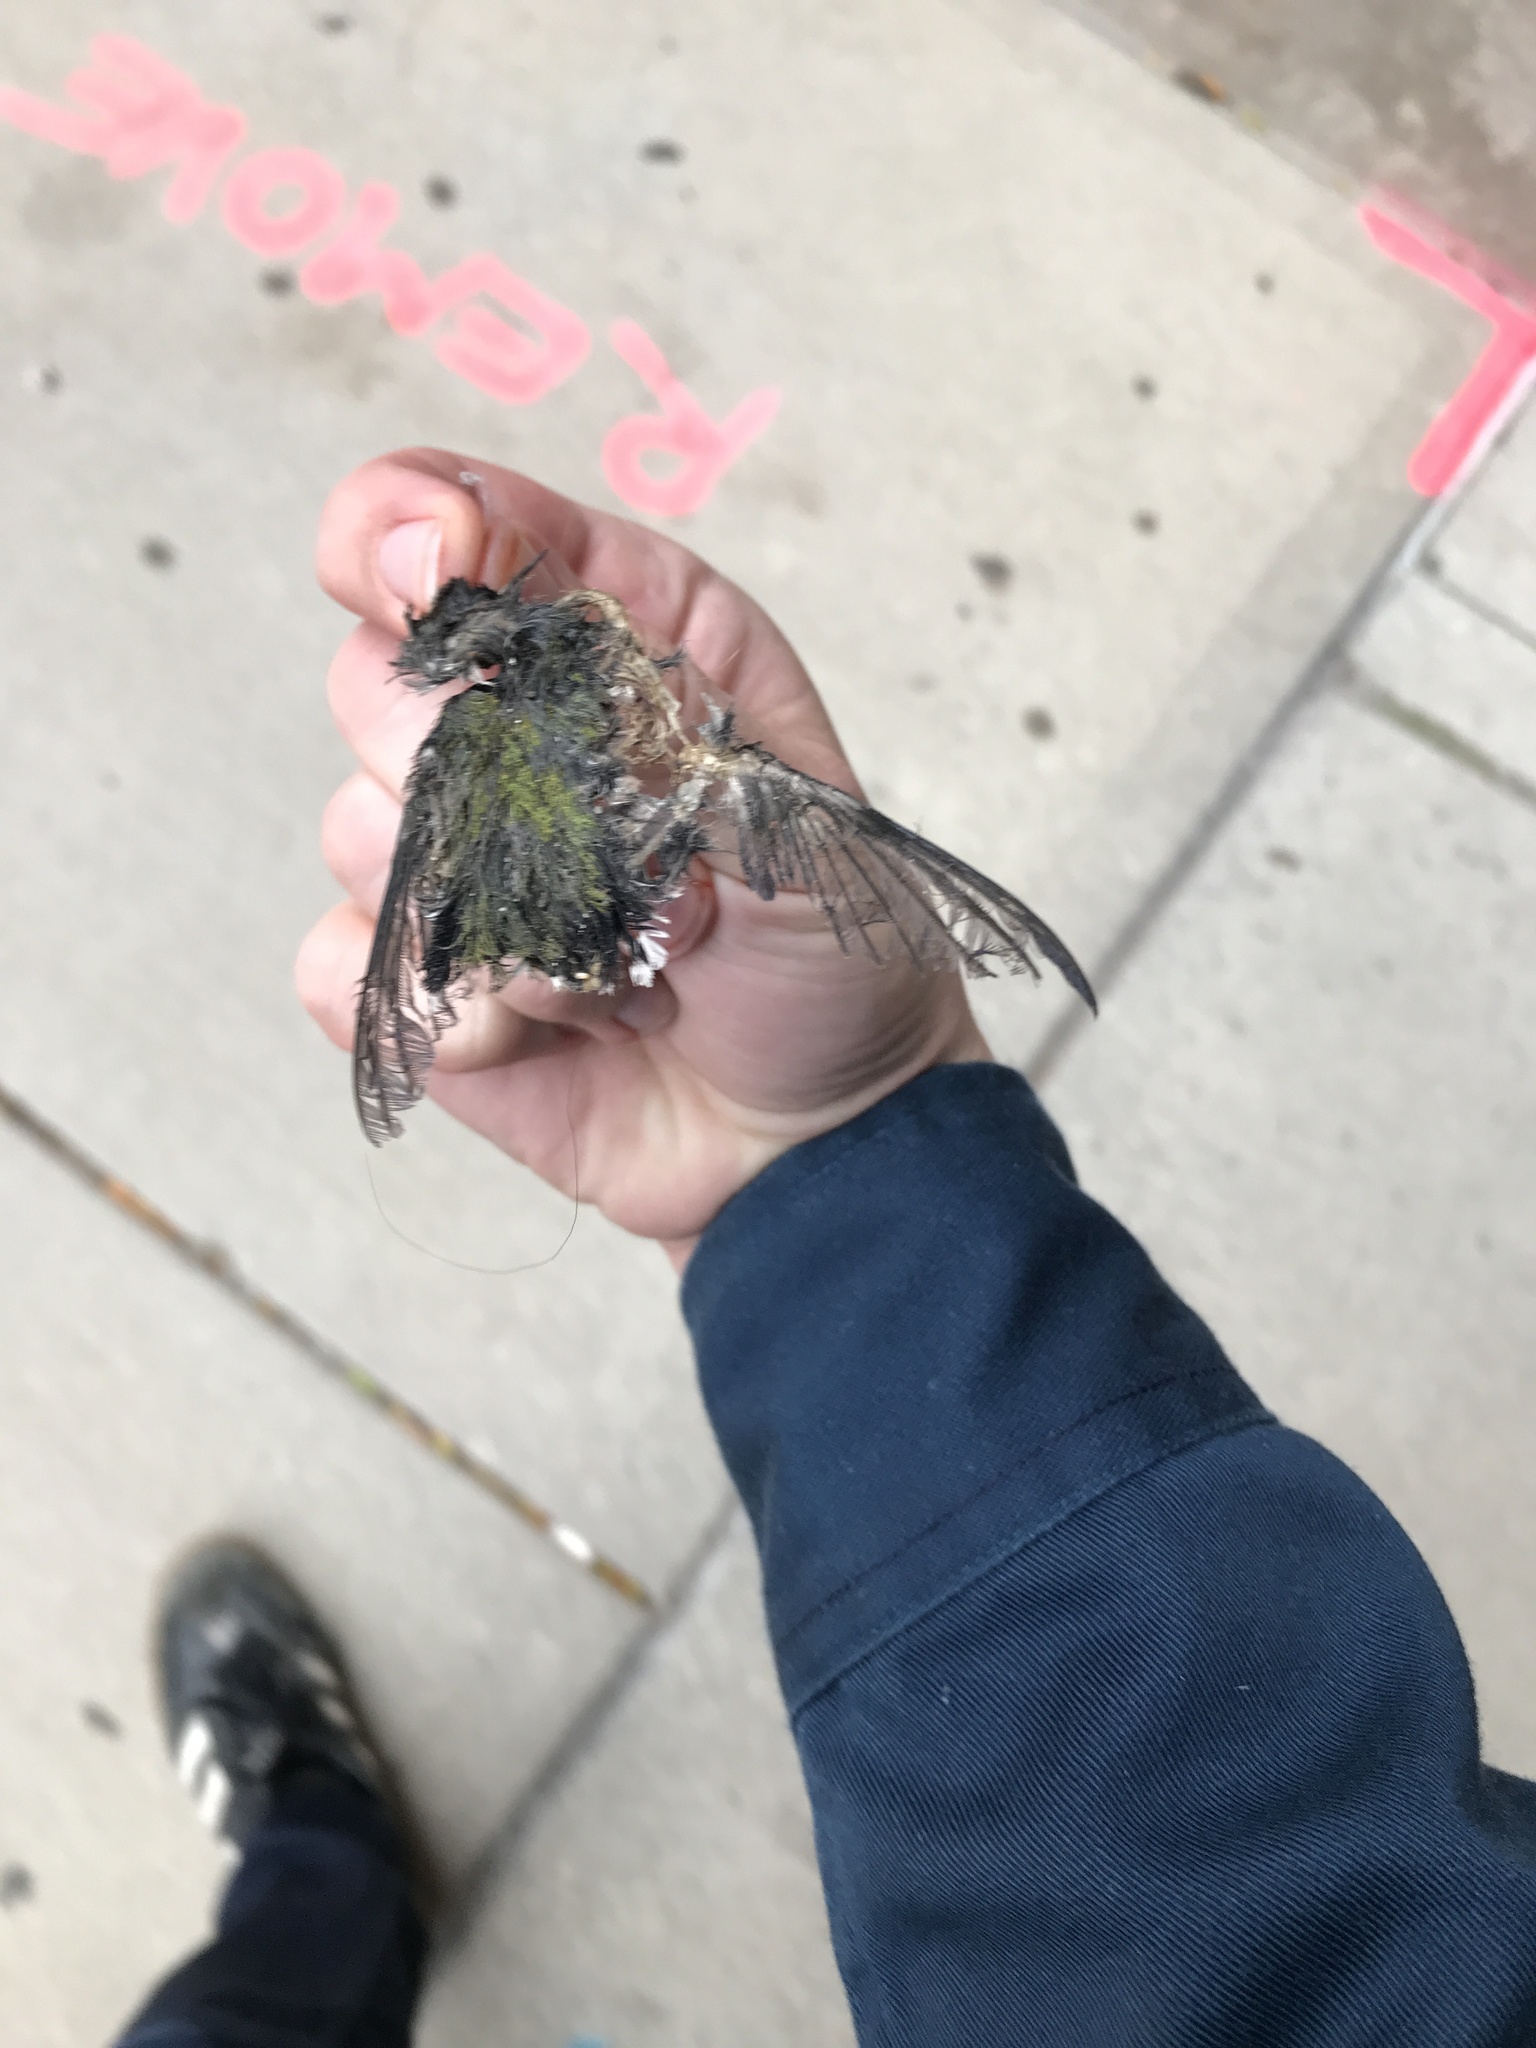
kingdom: Animalia
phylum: Chordata
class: Aves
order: Apodiformes
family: Trochilidae
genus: Archilochus
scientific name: Archilochus colubris
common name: Ruby-throated hummingbird
